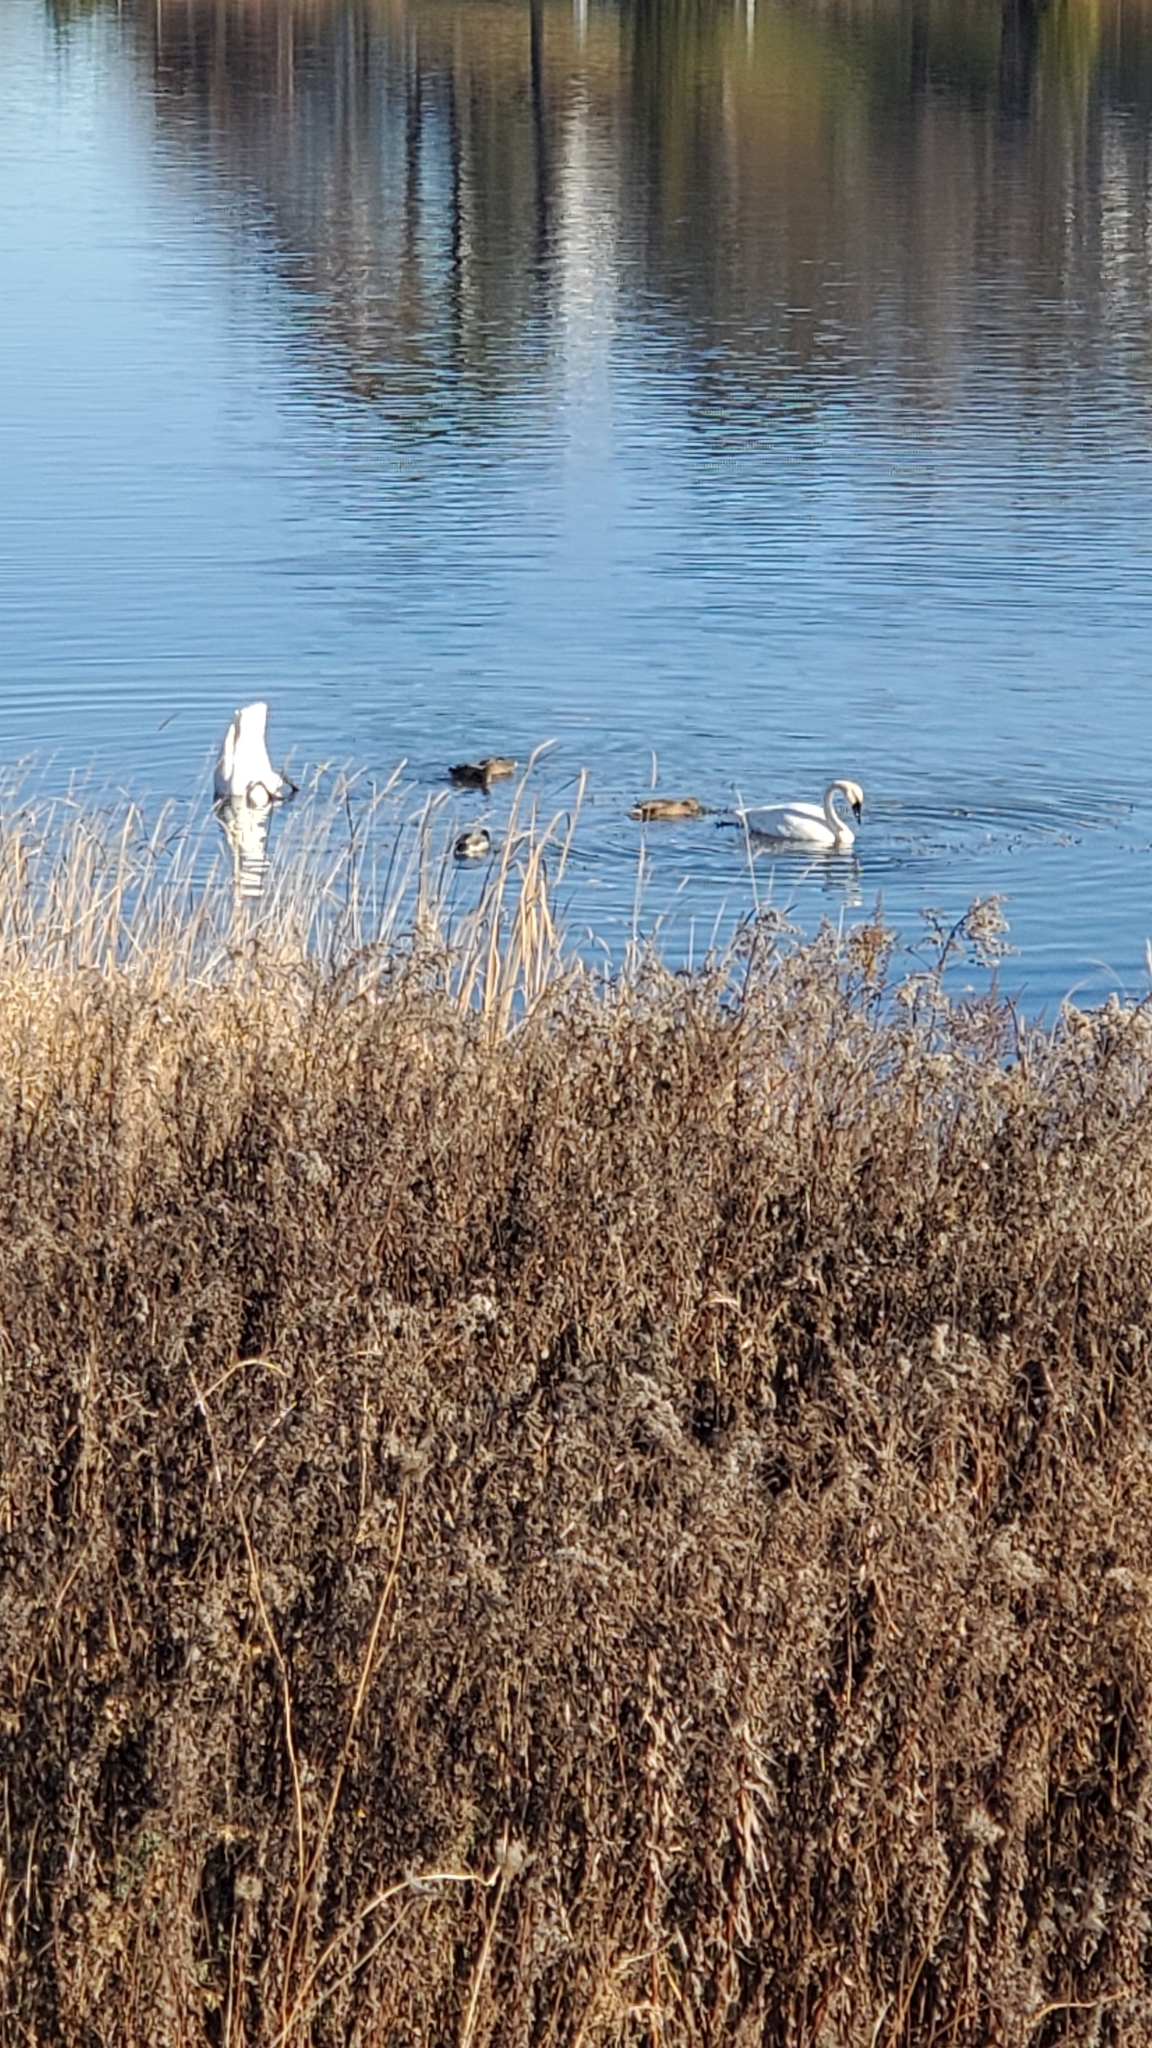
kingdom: Animalia
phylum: Chordata
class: Aves
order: Anseriformes
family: Anatidae
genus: Cygnus
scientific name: Cygnus buccinator
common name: Trumpeter swan
